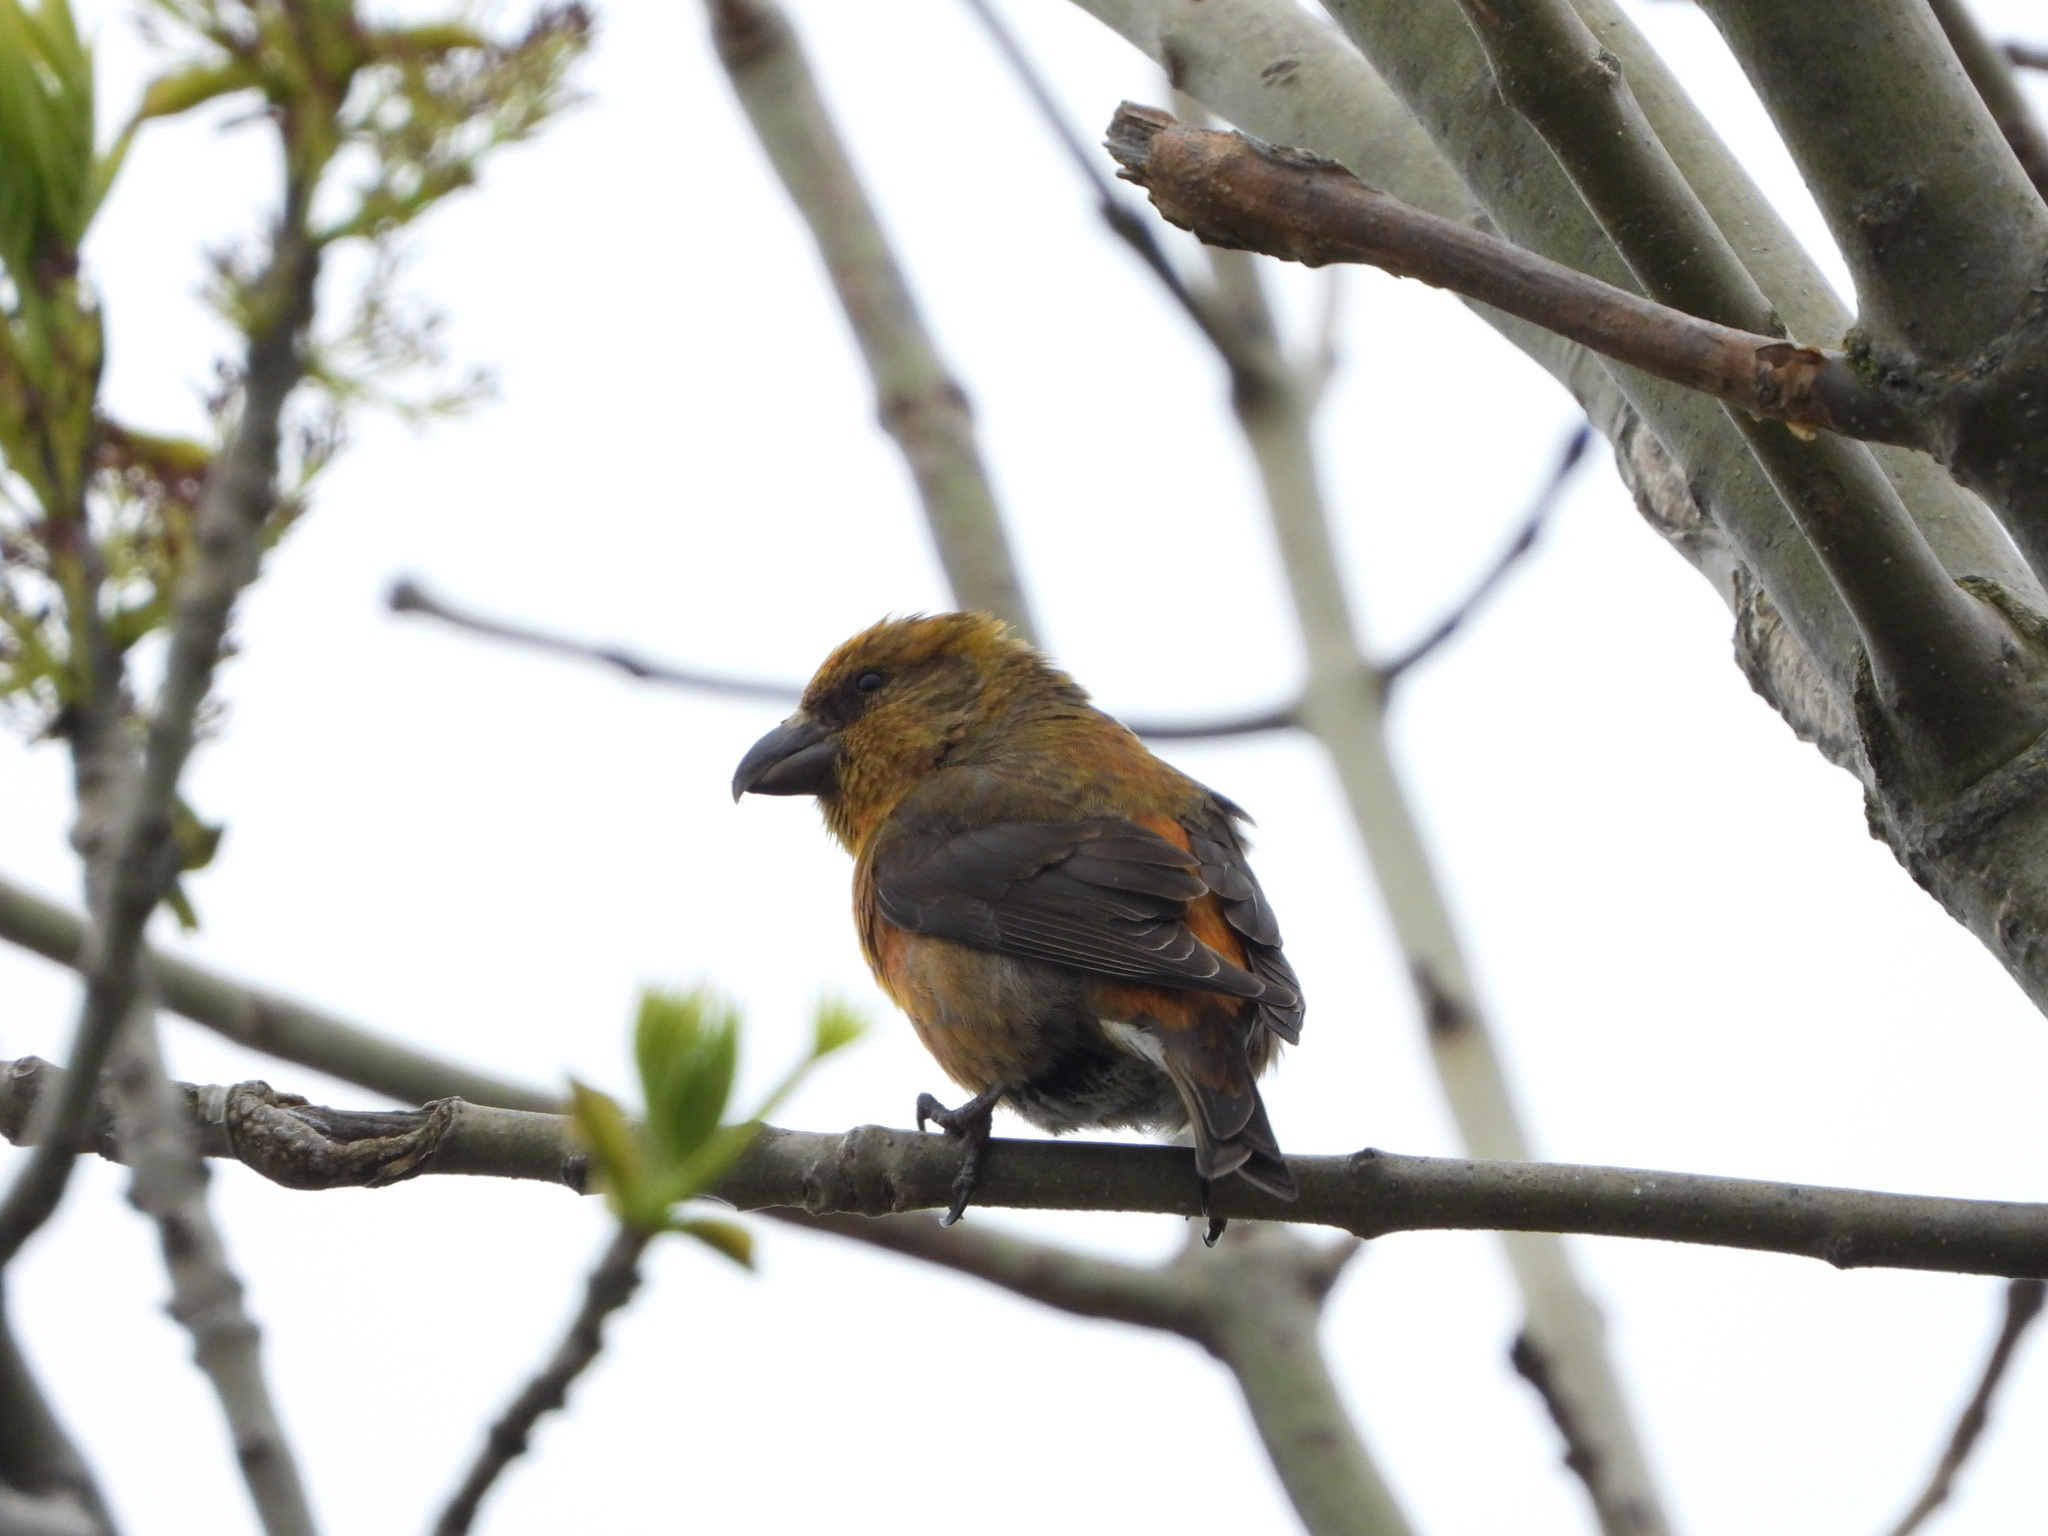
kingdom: Animalia
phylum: Chordata
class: Aves
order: Passeriformes
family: Fringillidae
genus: Loxia
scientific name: Loxia curvirostra
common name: Red crossbill
